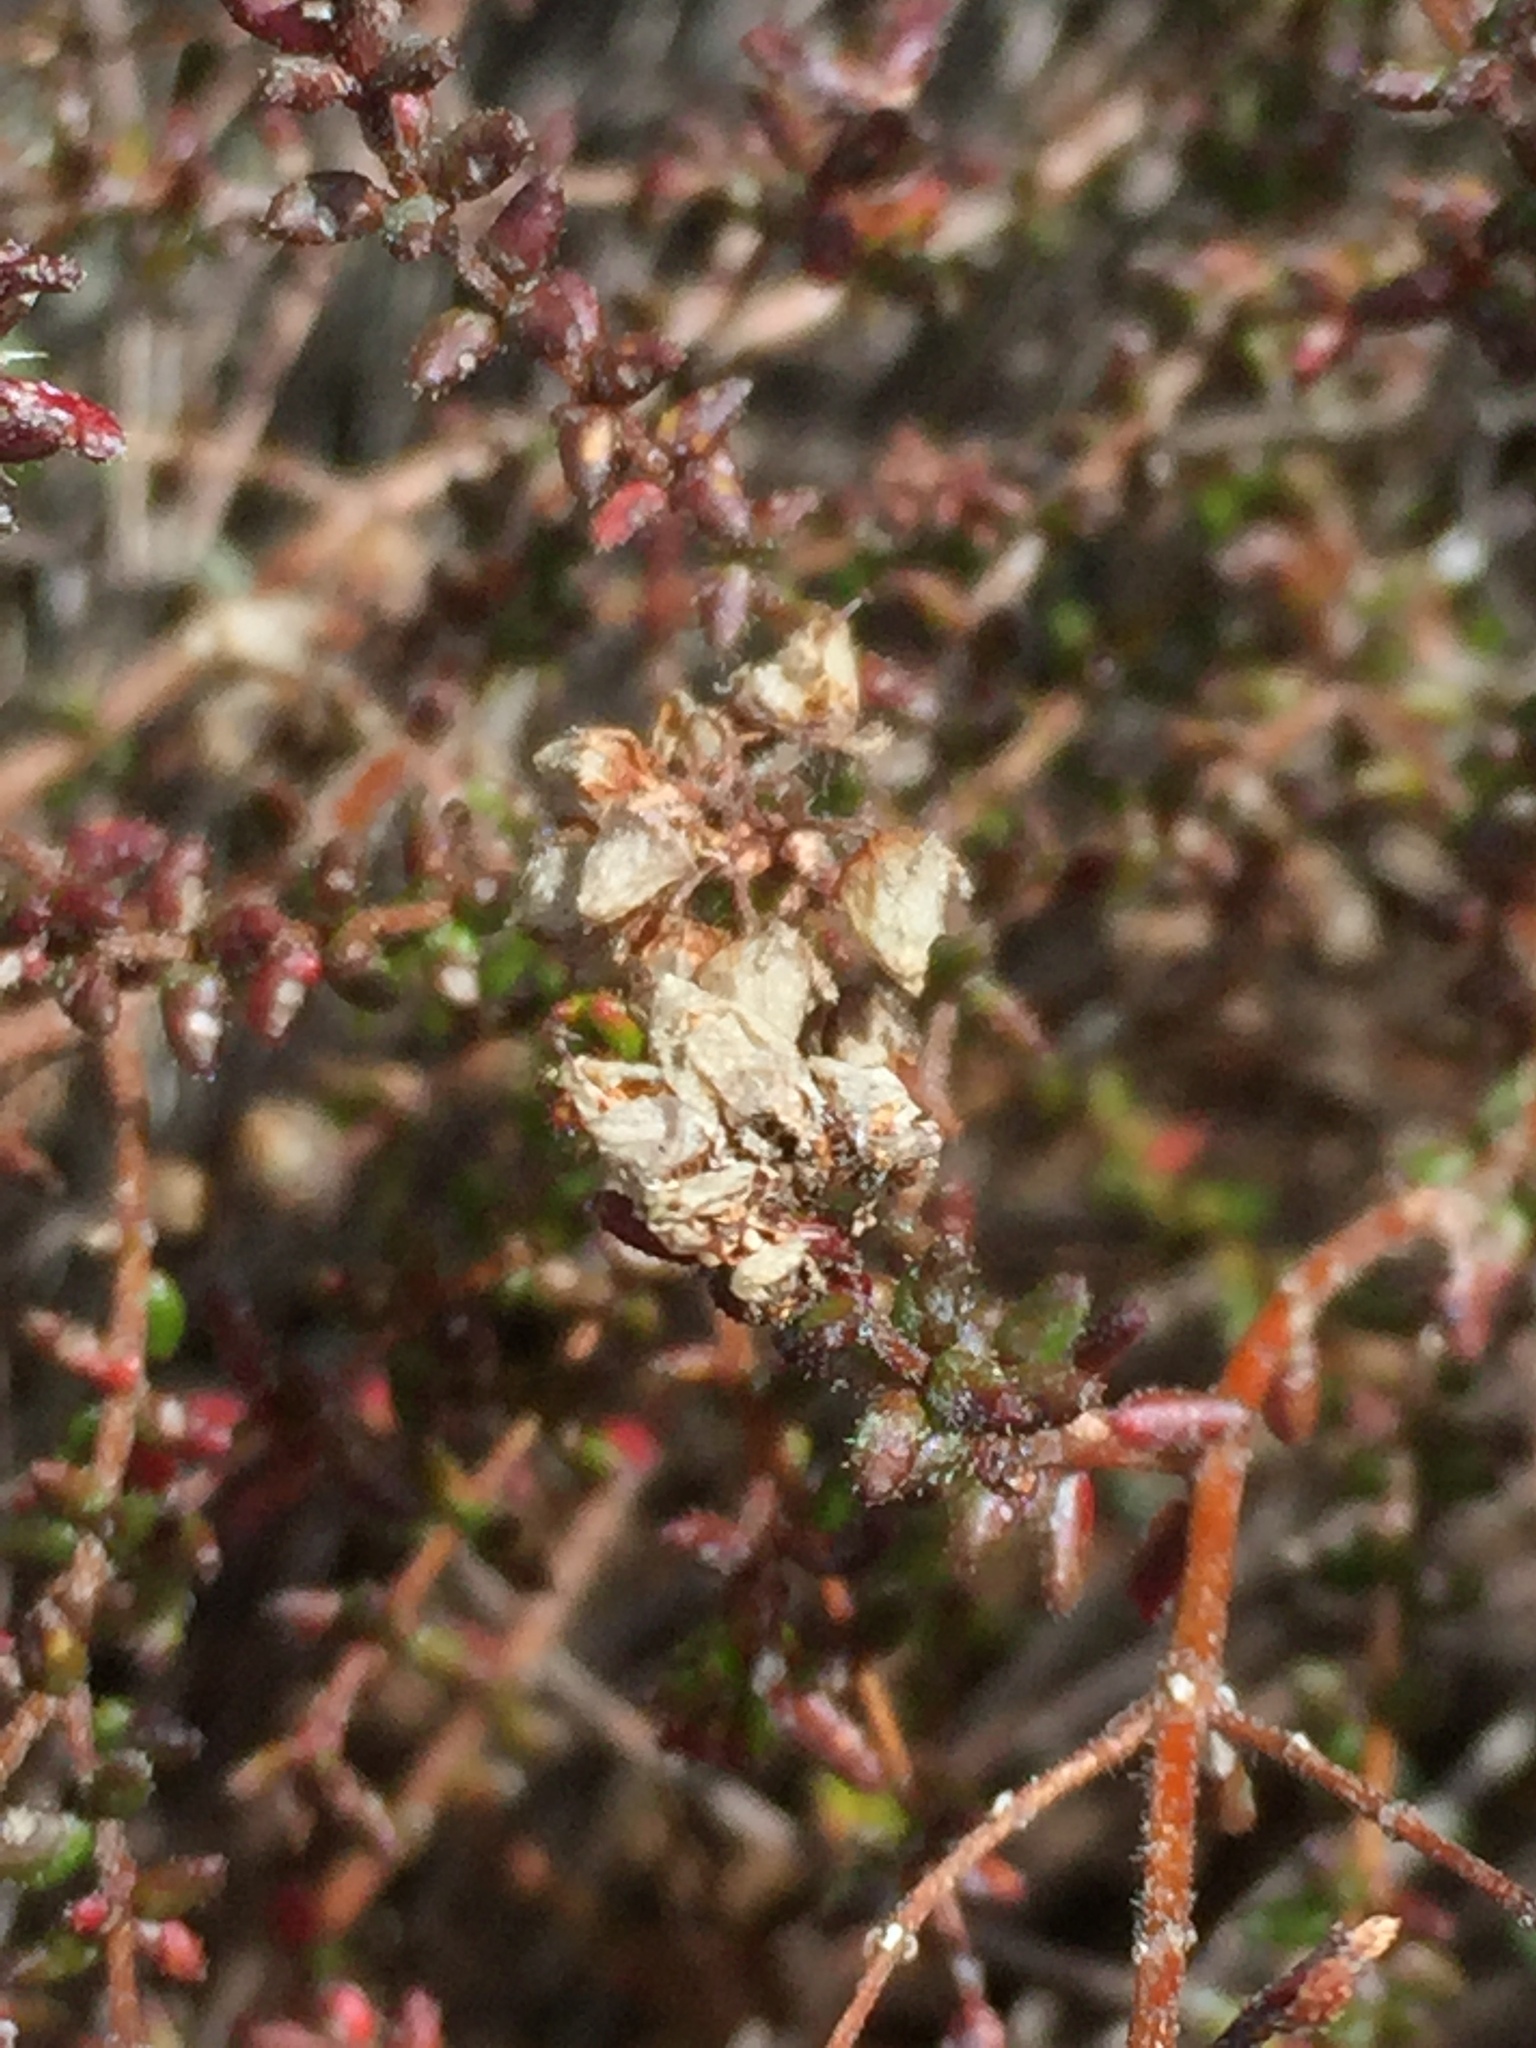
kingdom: Plantae
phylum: Tracheophyta
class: Magnoliopsida
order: Ericales
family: Ericaceae
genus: Erica
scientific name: Erica clavisepala
